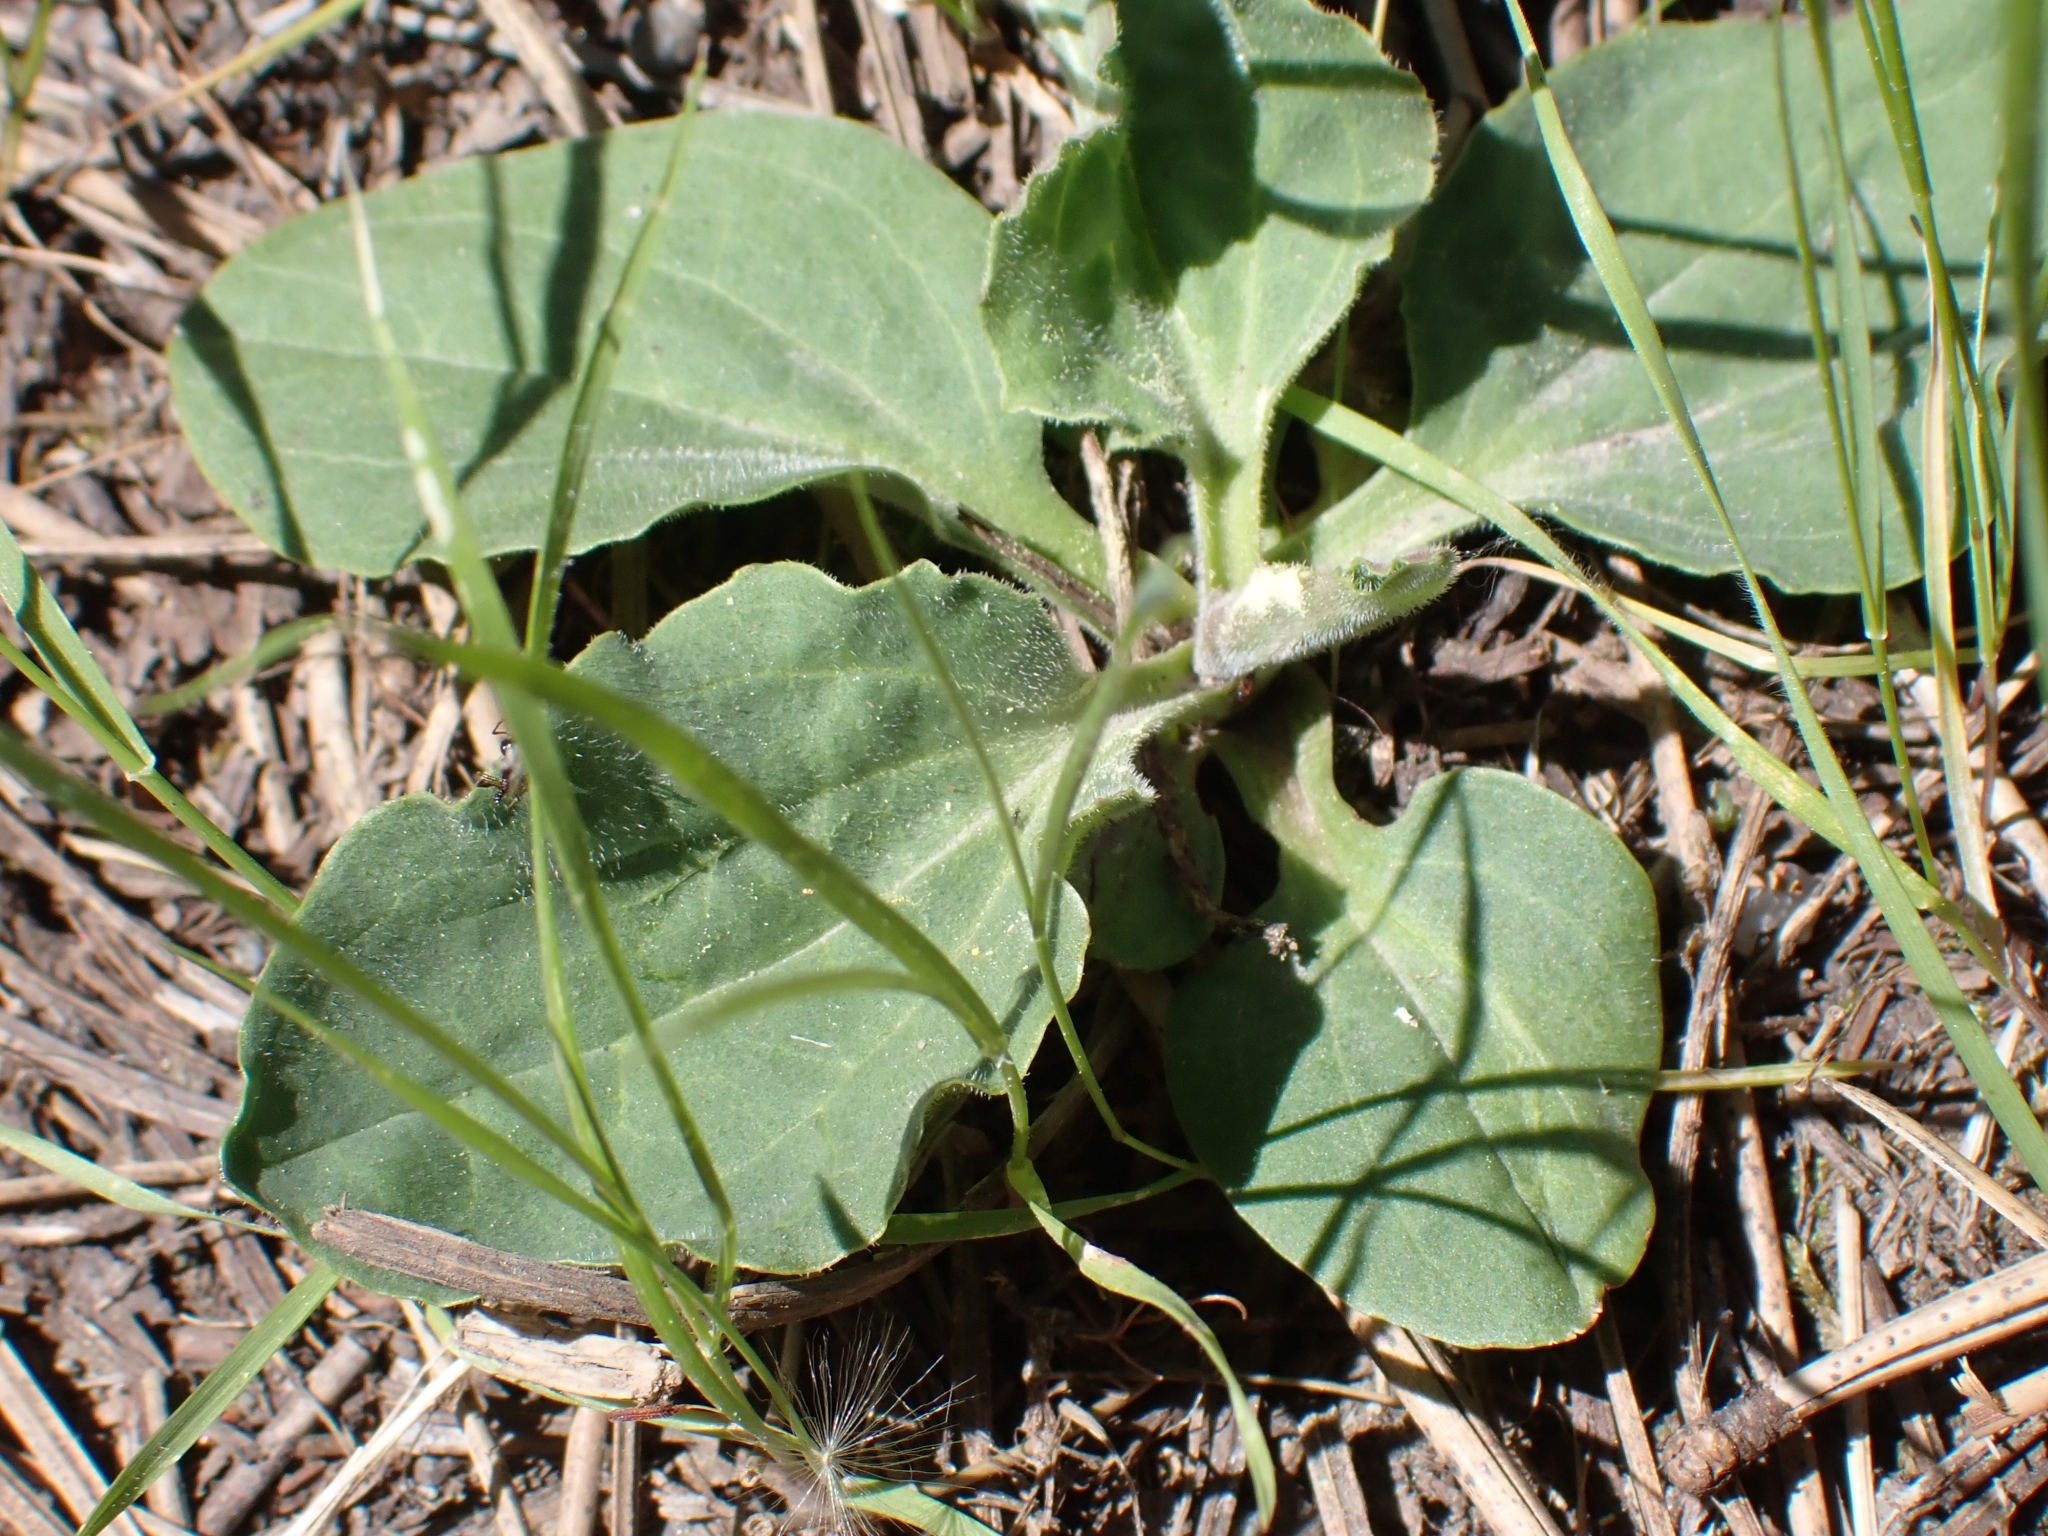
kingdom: Plantae
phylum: Tracheophyta
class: Magnoliopsida
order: Lamiales
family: Plantaginaceae
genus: Plantago
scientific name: Plantago major
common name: Common plantain
